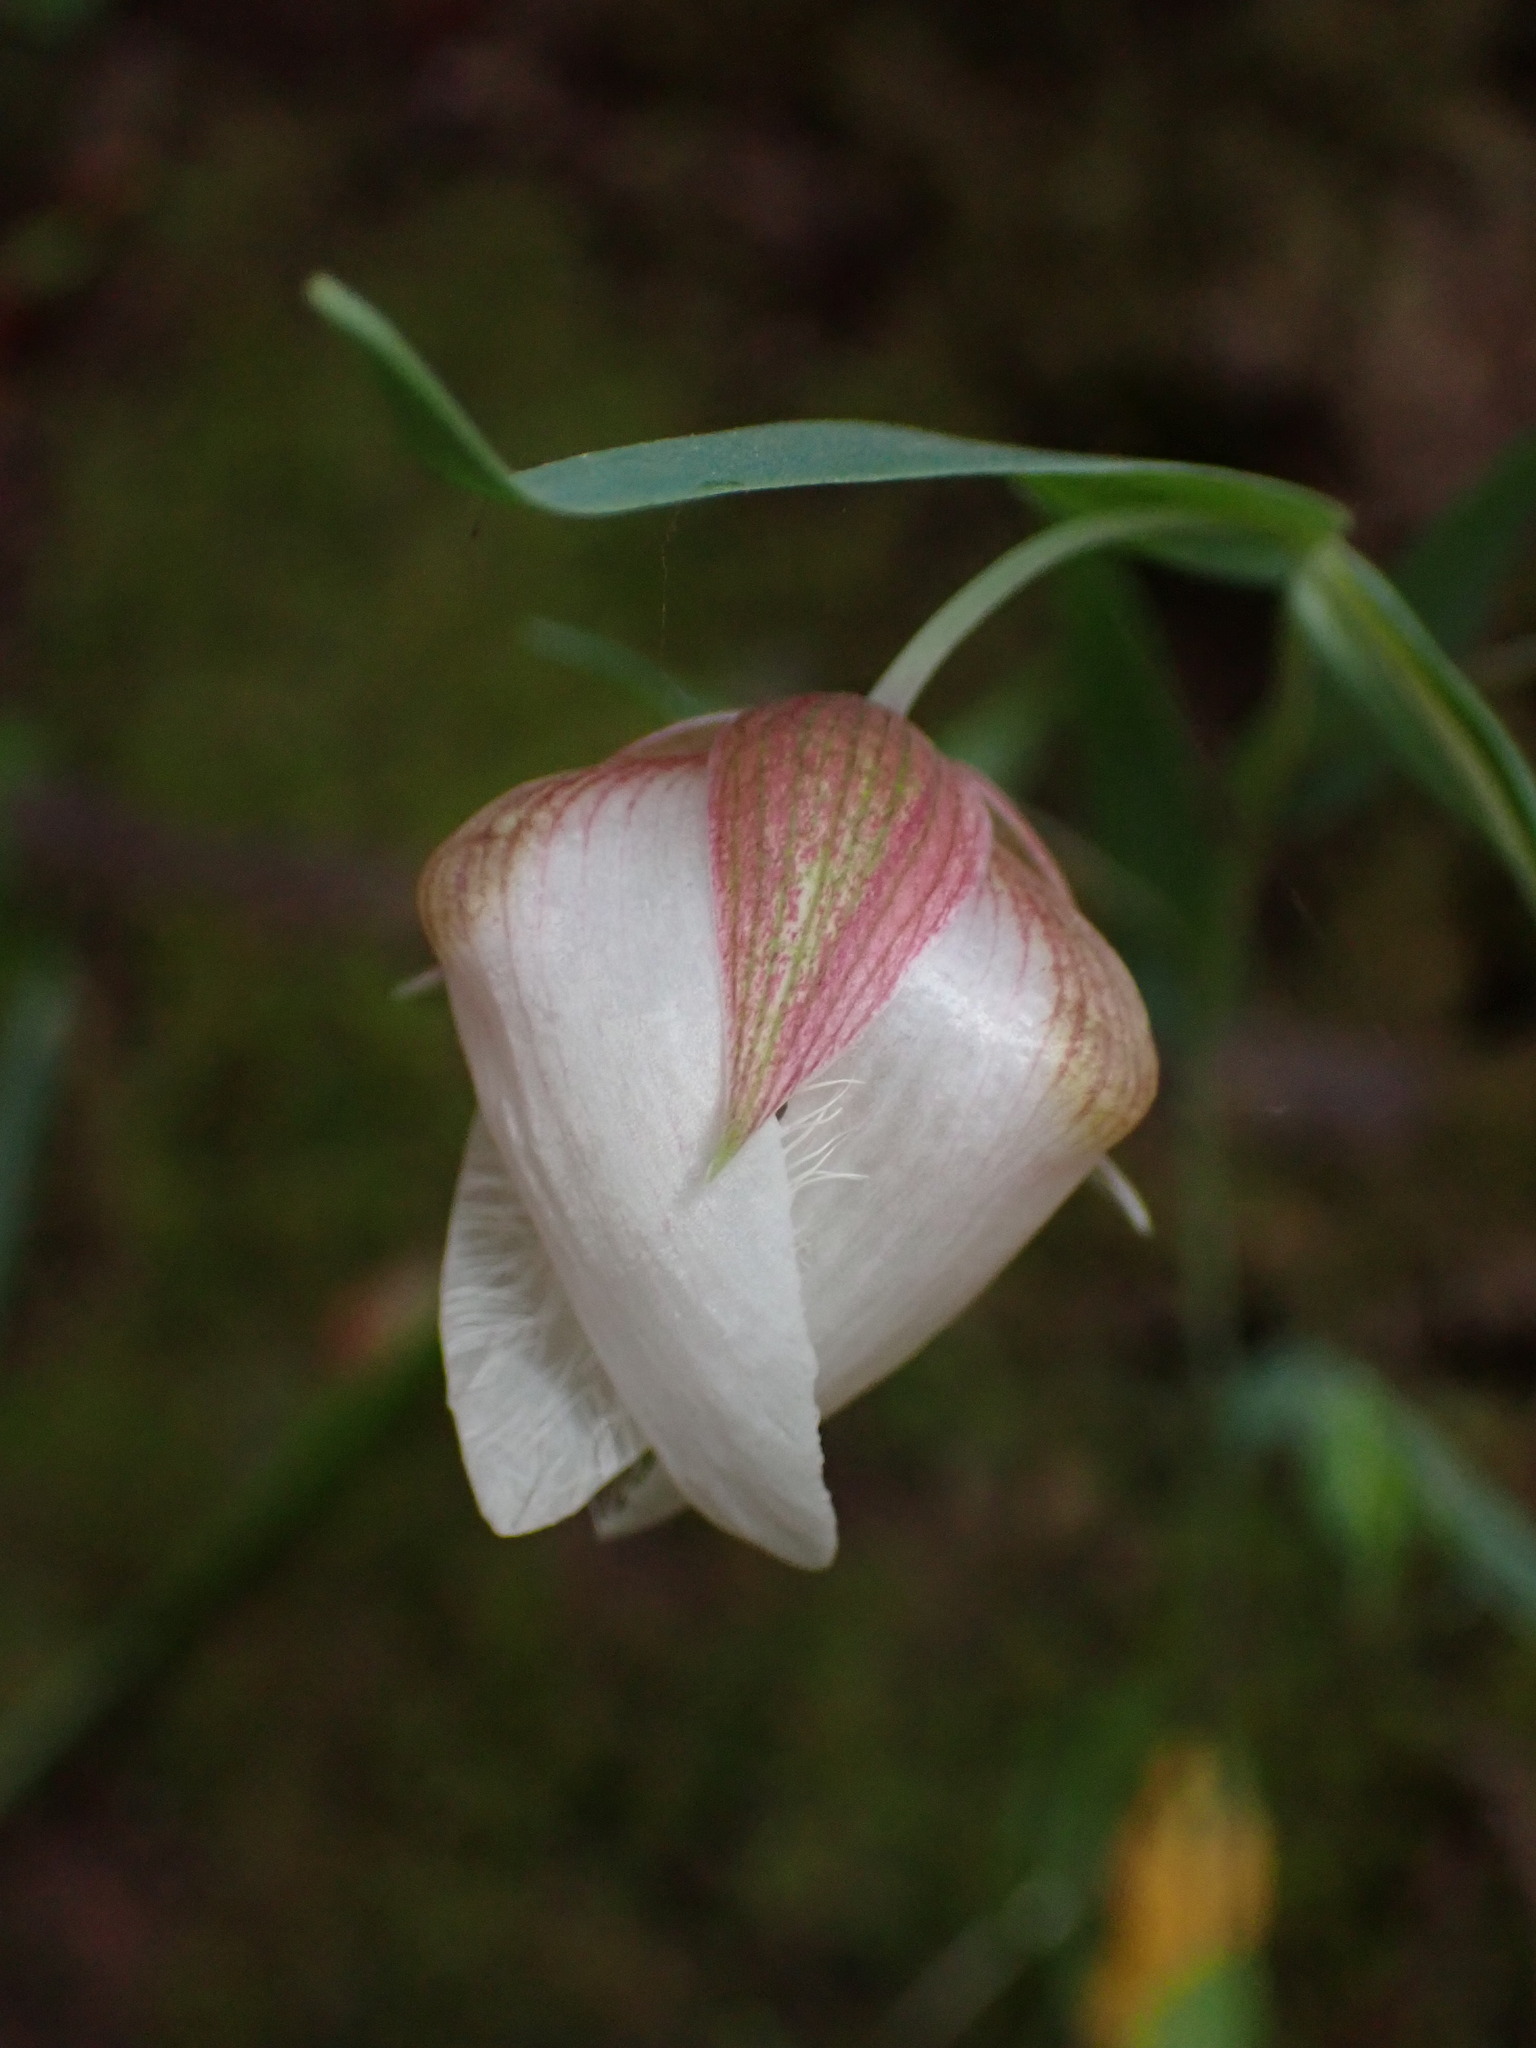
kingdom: Plantae
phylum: Tracheophyta
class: Liliopsida
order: Liliales
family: Liliaceae
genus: Calochortus
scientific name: Calochortus albus
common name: Fairy-lantern
